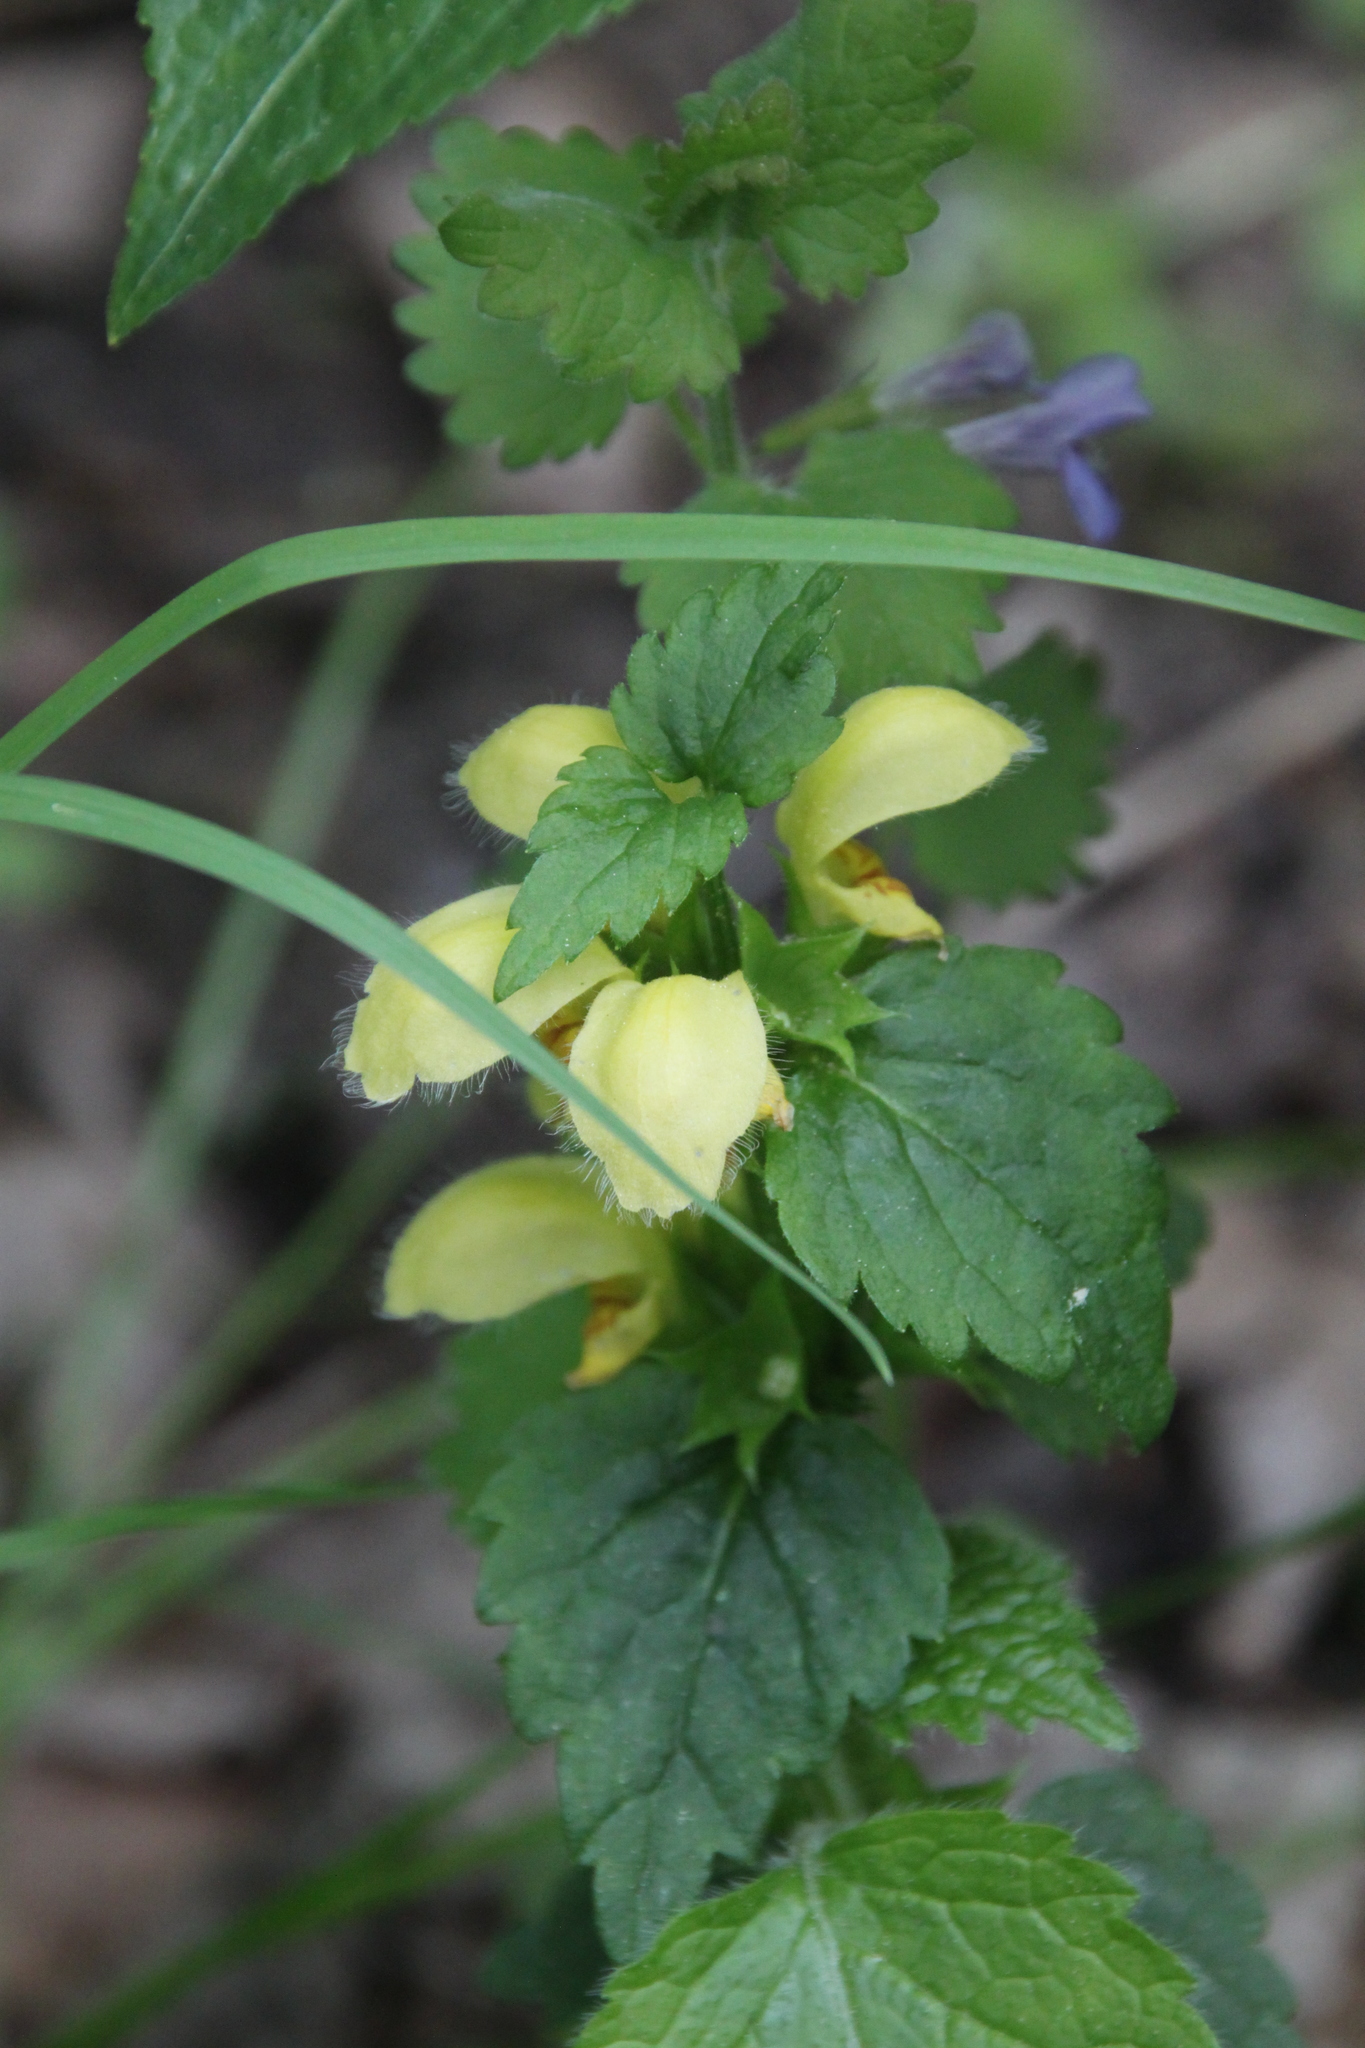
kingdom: Plantae
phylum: Tracheophyta
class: Magnoliopsida
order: Lamiales
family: Lamiaceae
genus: Lamium
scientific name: Lamium galeobdolon
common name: Yellow archangel
